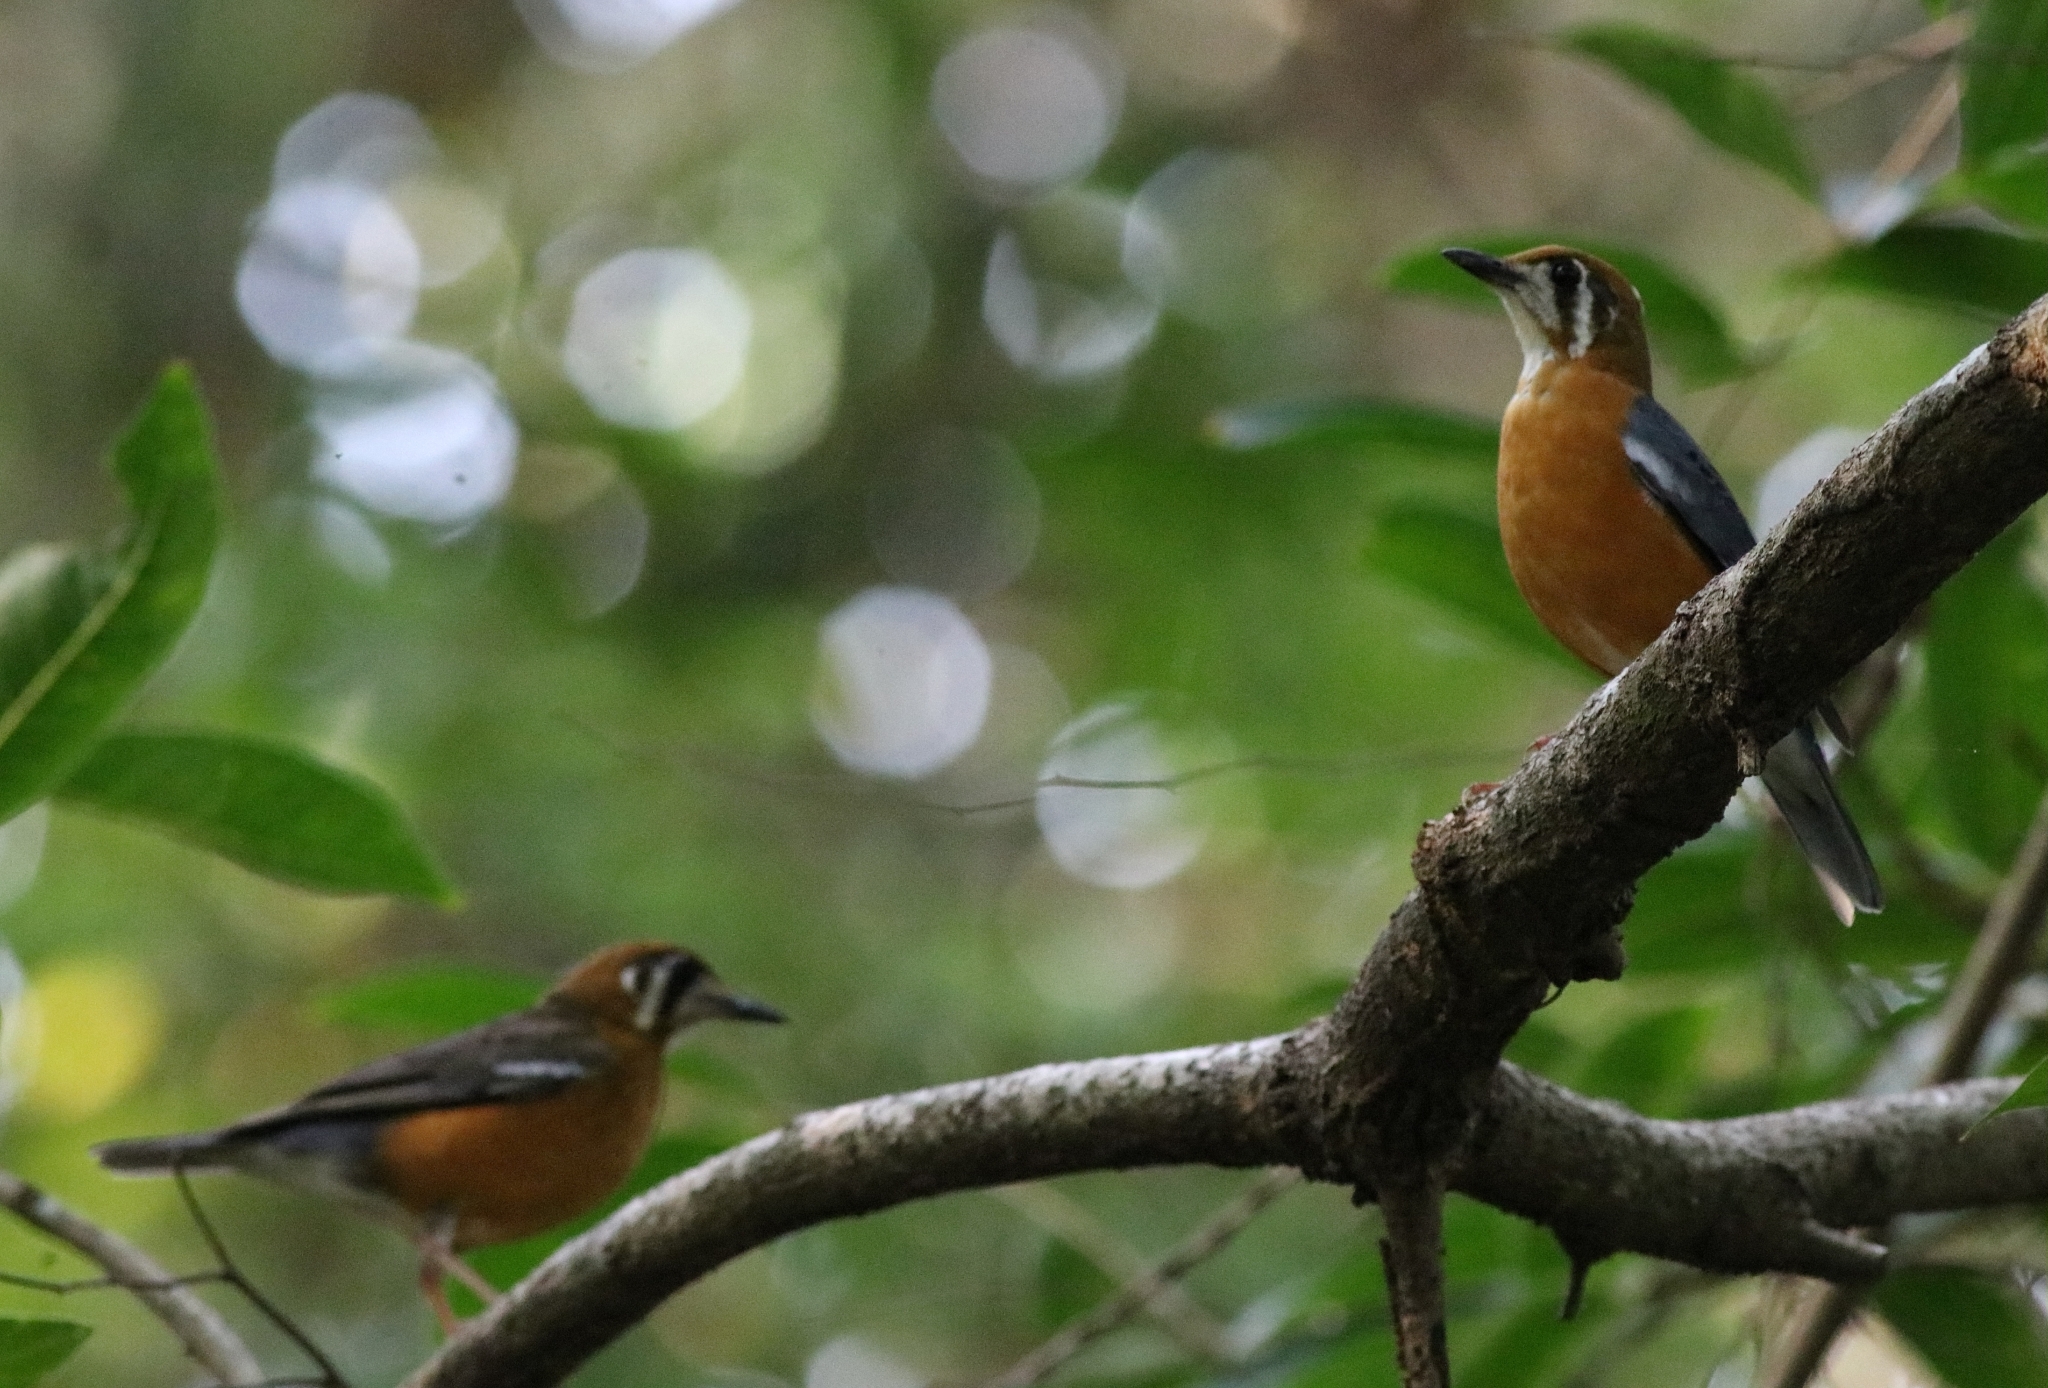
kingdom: Animalia
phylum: Chordata
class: Aves
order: Passeriformes
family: Turdidae
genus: Geokichla
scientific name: Geokichla citrina
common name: Orange-headed thrush
